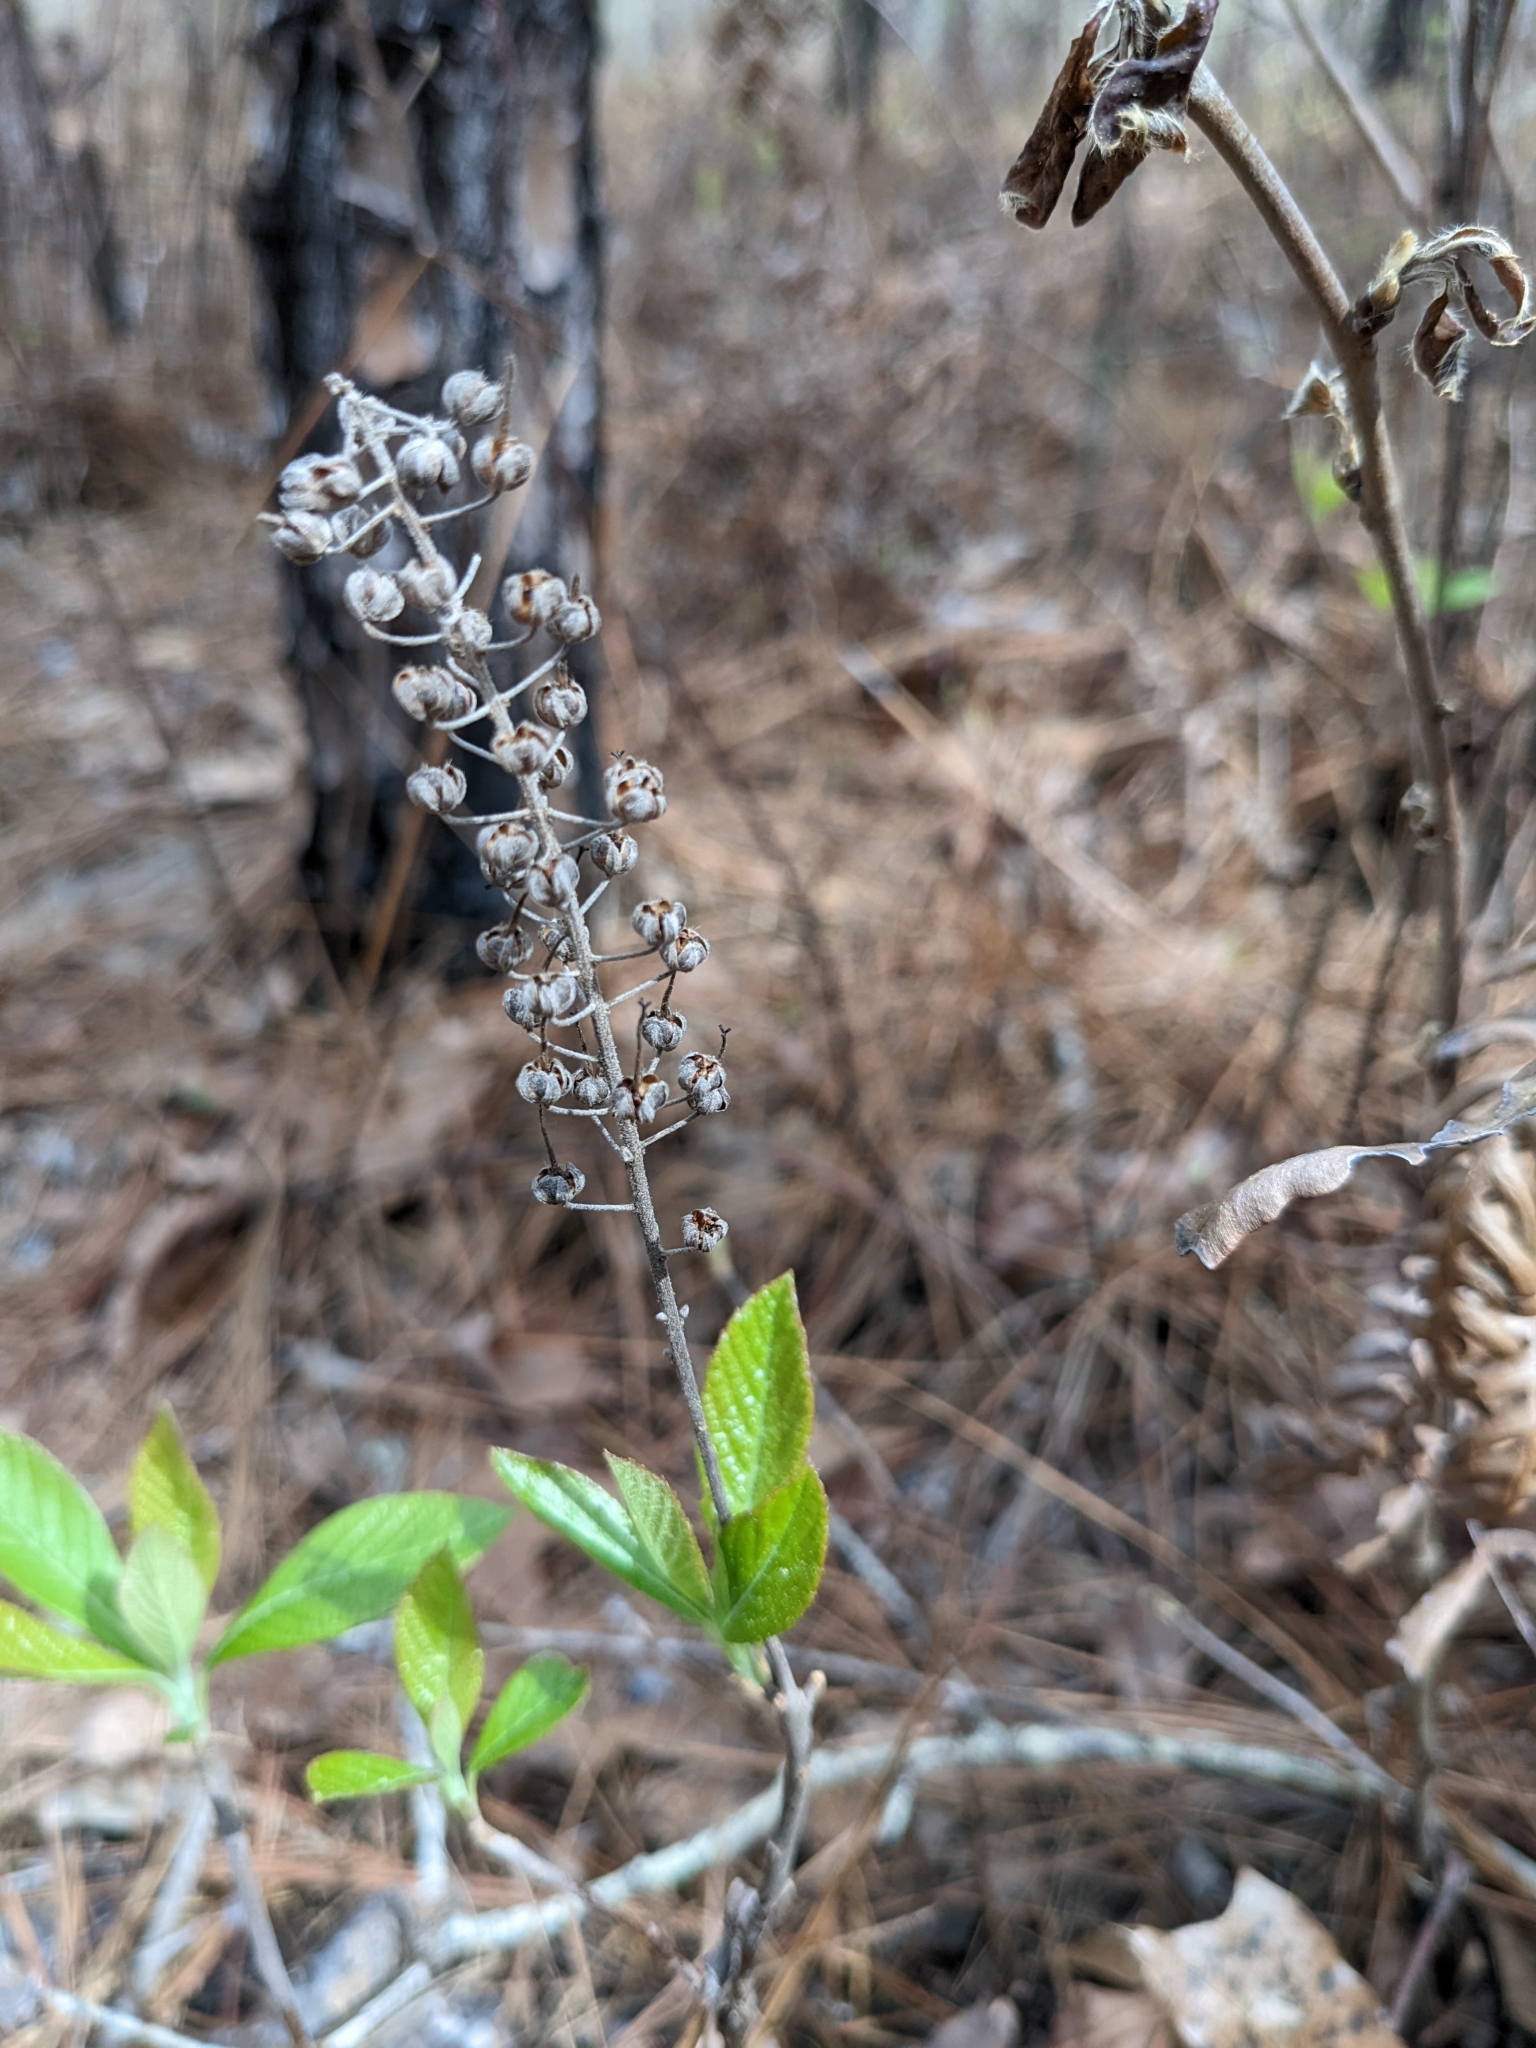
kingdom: Plantae
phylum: Tracheophyta
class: Magnoliopsida
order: Ericales
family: Clethraceae
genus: Clethra
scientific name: Clethra alnifolia
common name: Sweet pepperbush
